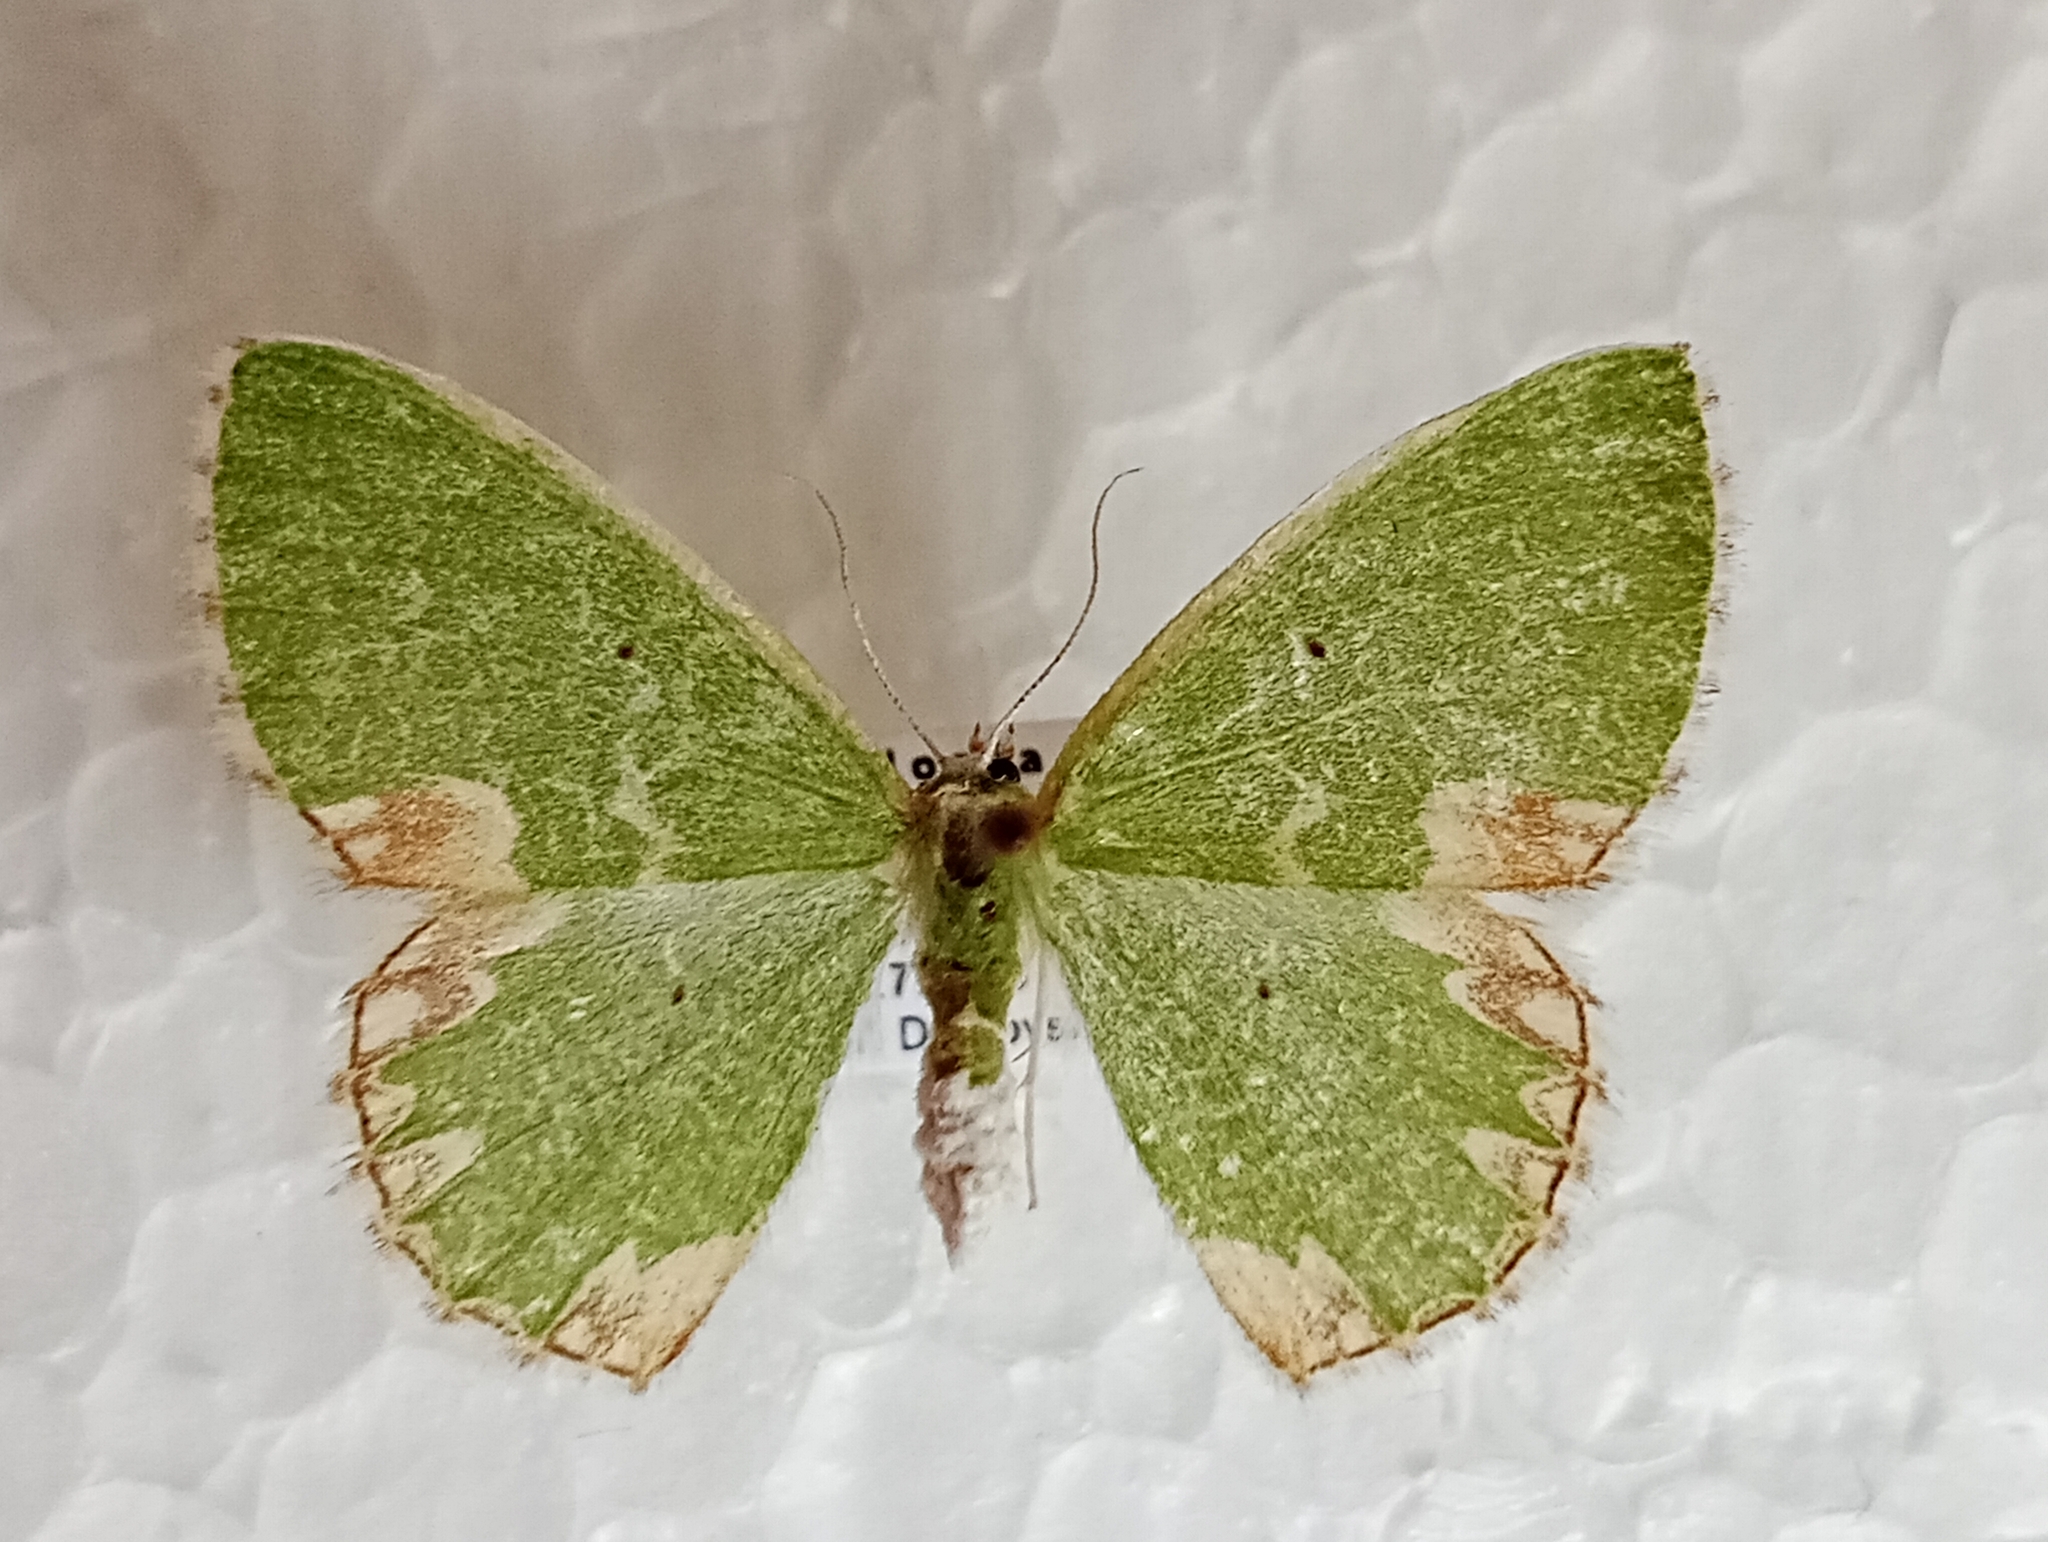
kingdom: Animalia
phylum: Arthropoda
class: Insecta
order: Lepidoptera
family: Geometridae
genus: Comibaena
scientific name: Comibaena bajularia
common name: Blotched emerald
